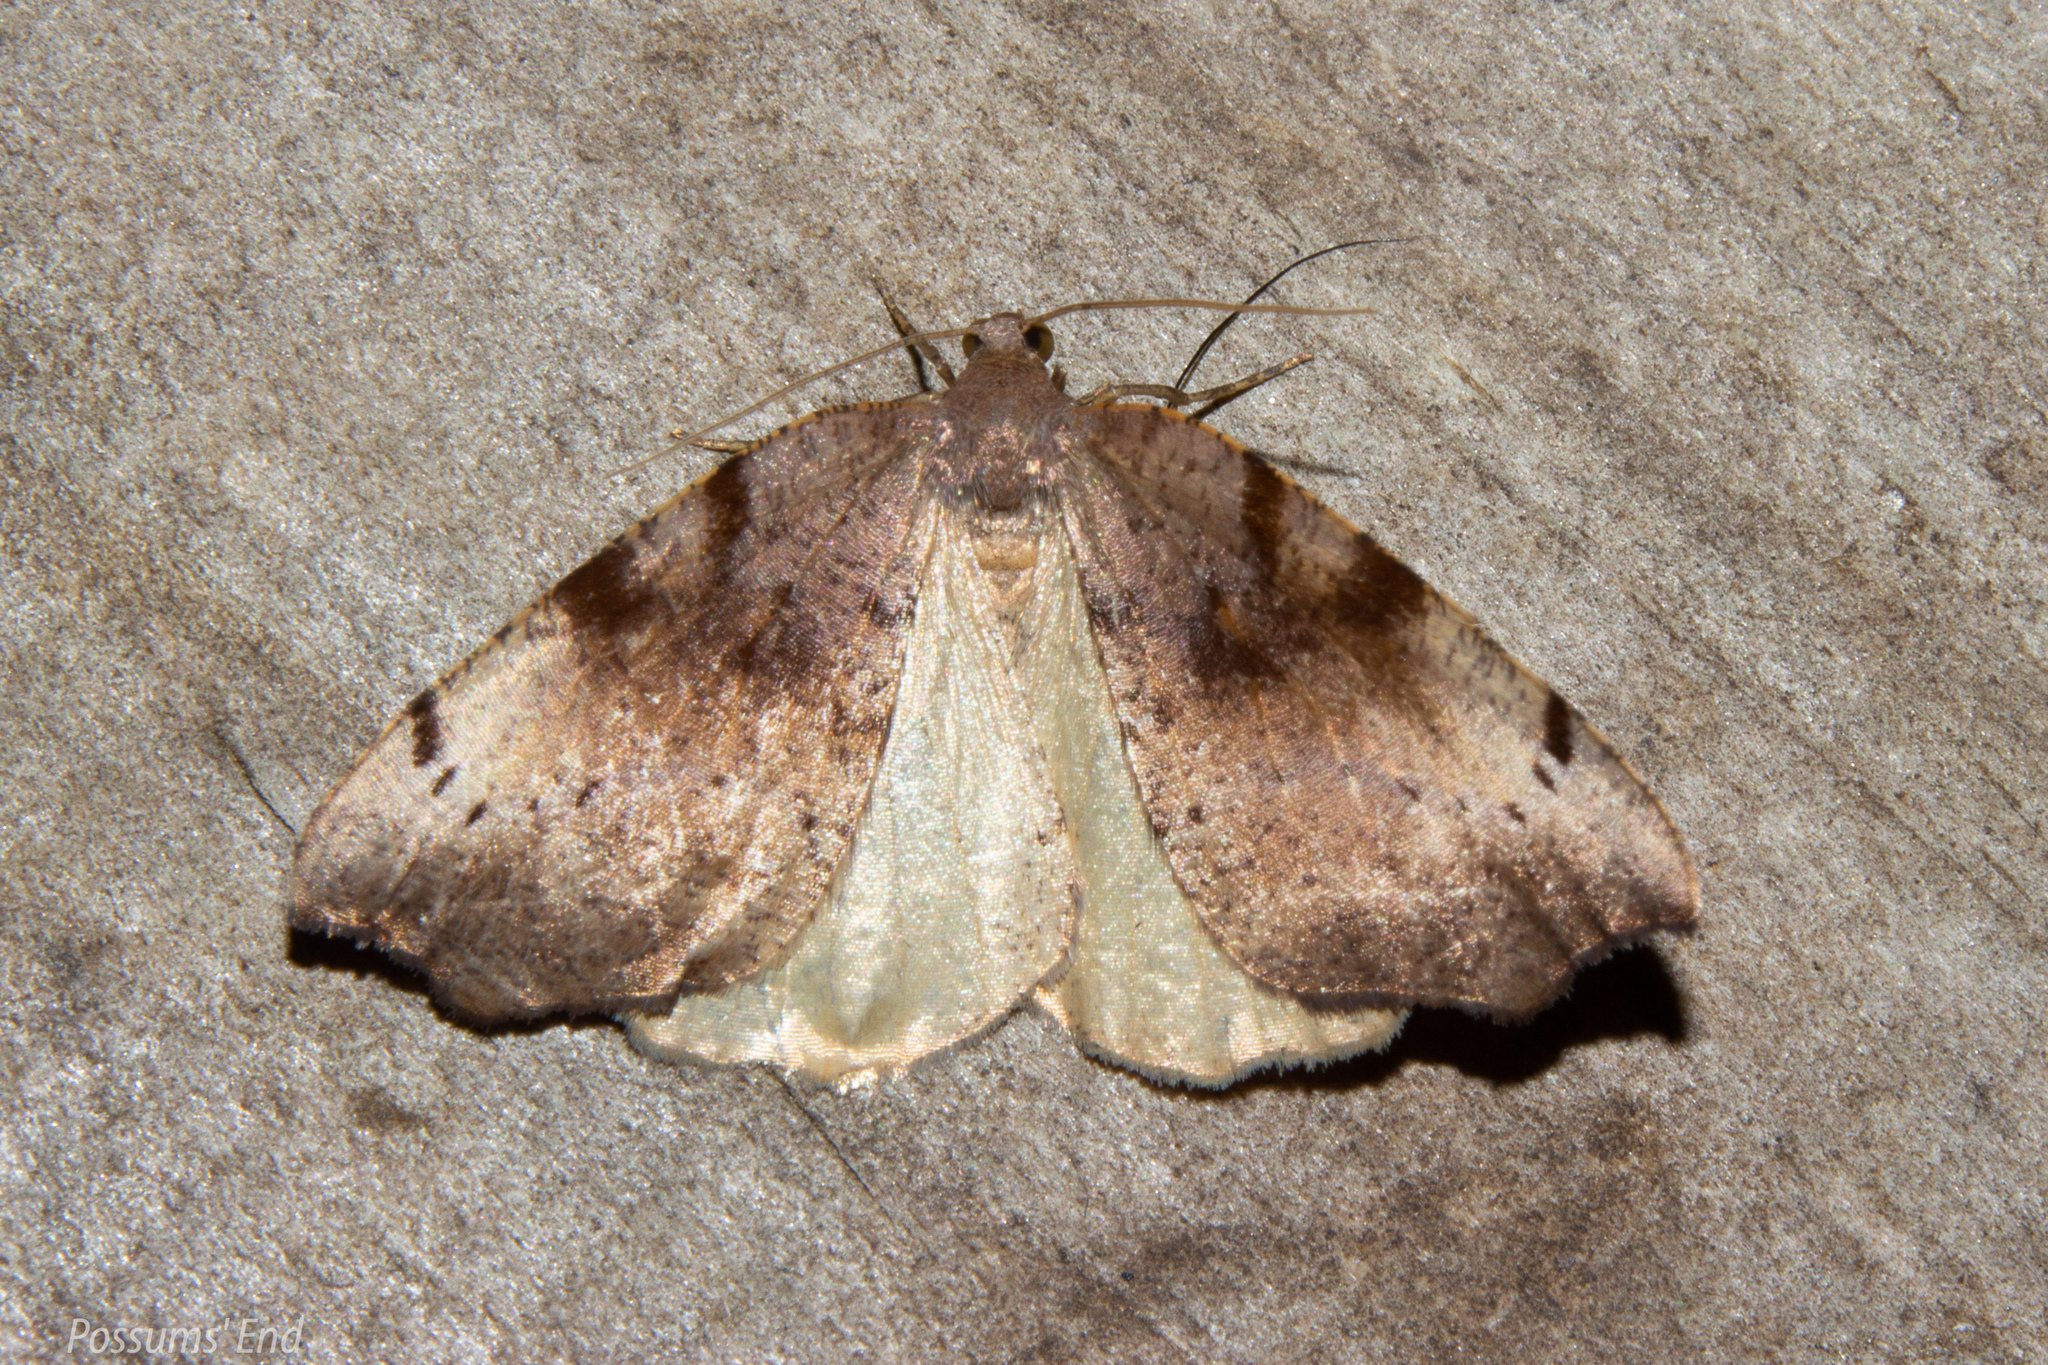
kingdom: Animalia
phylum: Arthropoda
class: Insecta
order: Lepidoptera
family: Geometridae
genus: Sestra
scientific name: Sestra flexata
